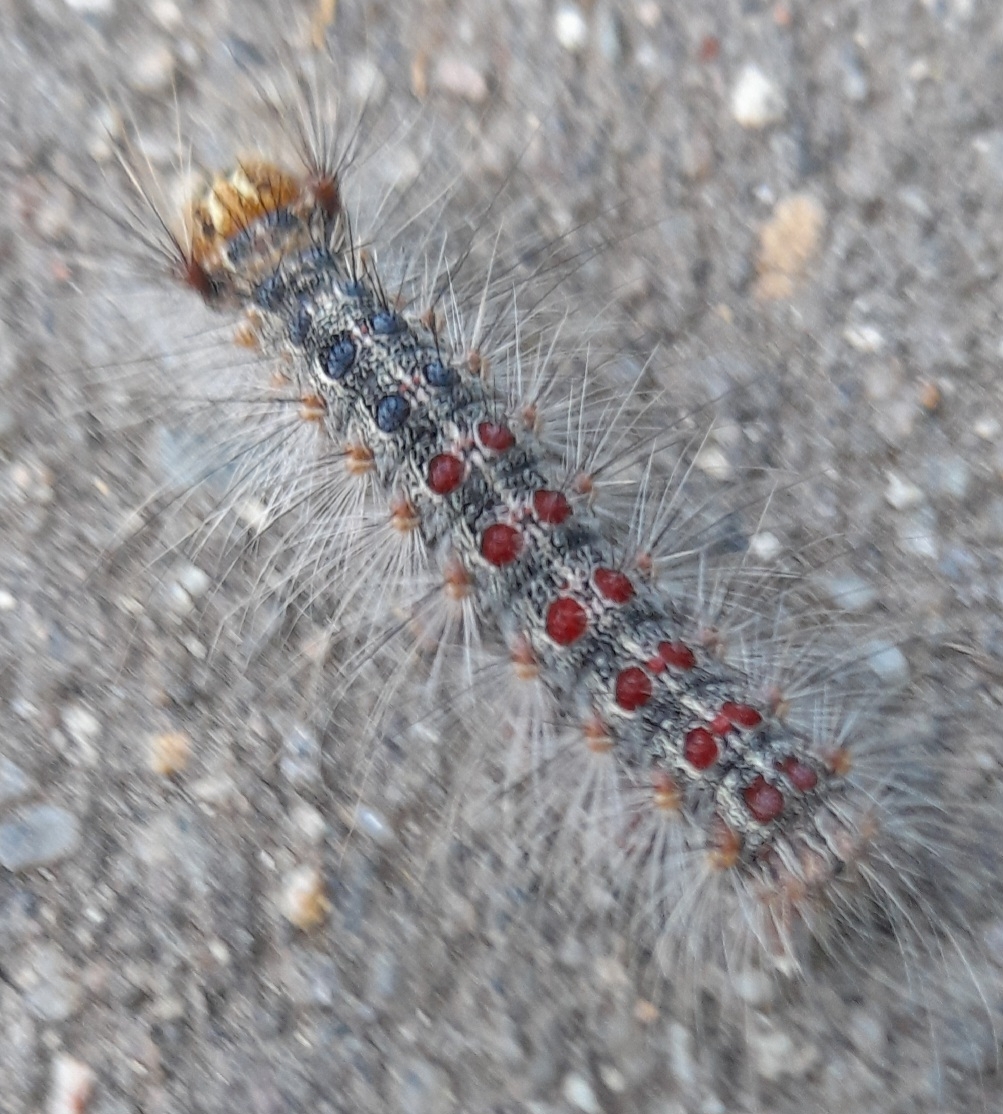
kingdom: Animalia
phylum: Arthropoda
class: Insecta
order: Lepidoptera
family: Erebidae
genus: Lymantria
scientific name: Lymantria dispar
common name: Gypsy moth
